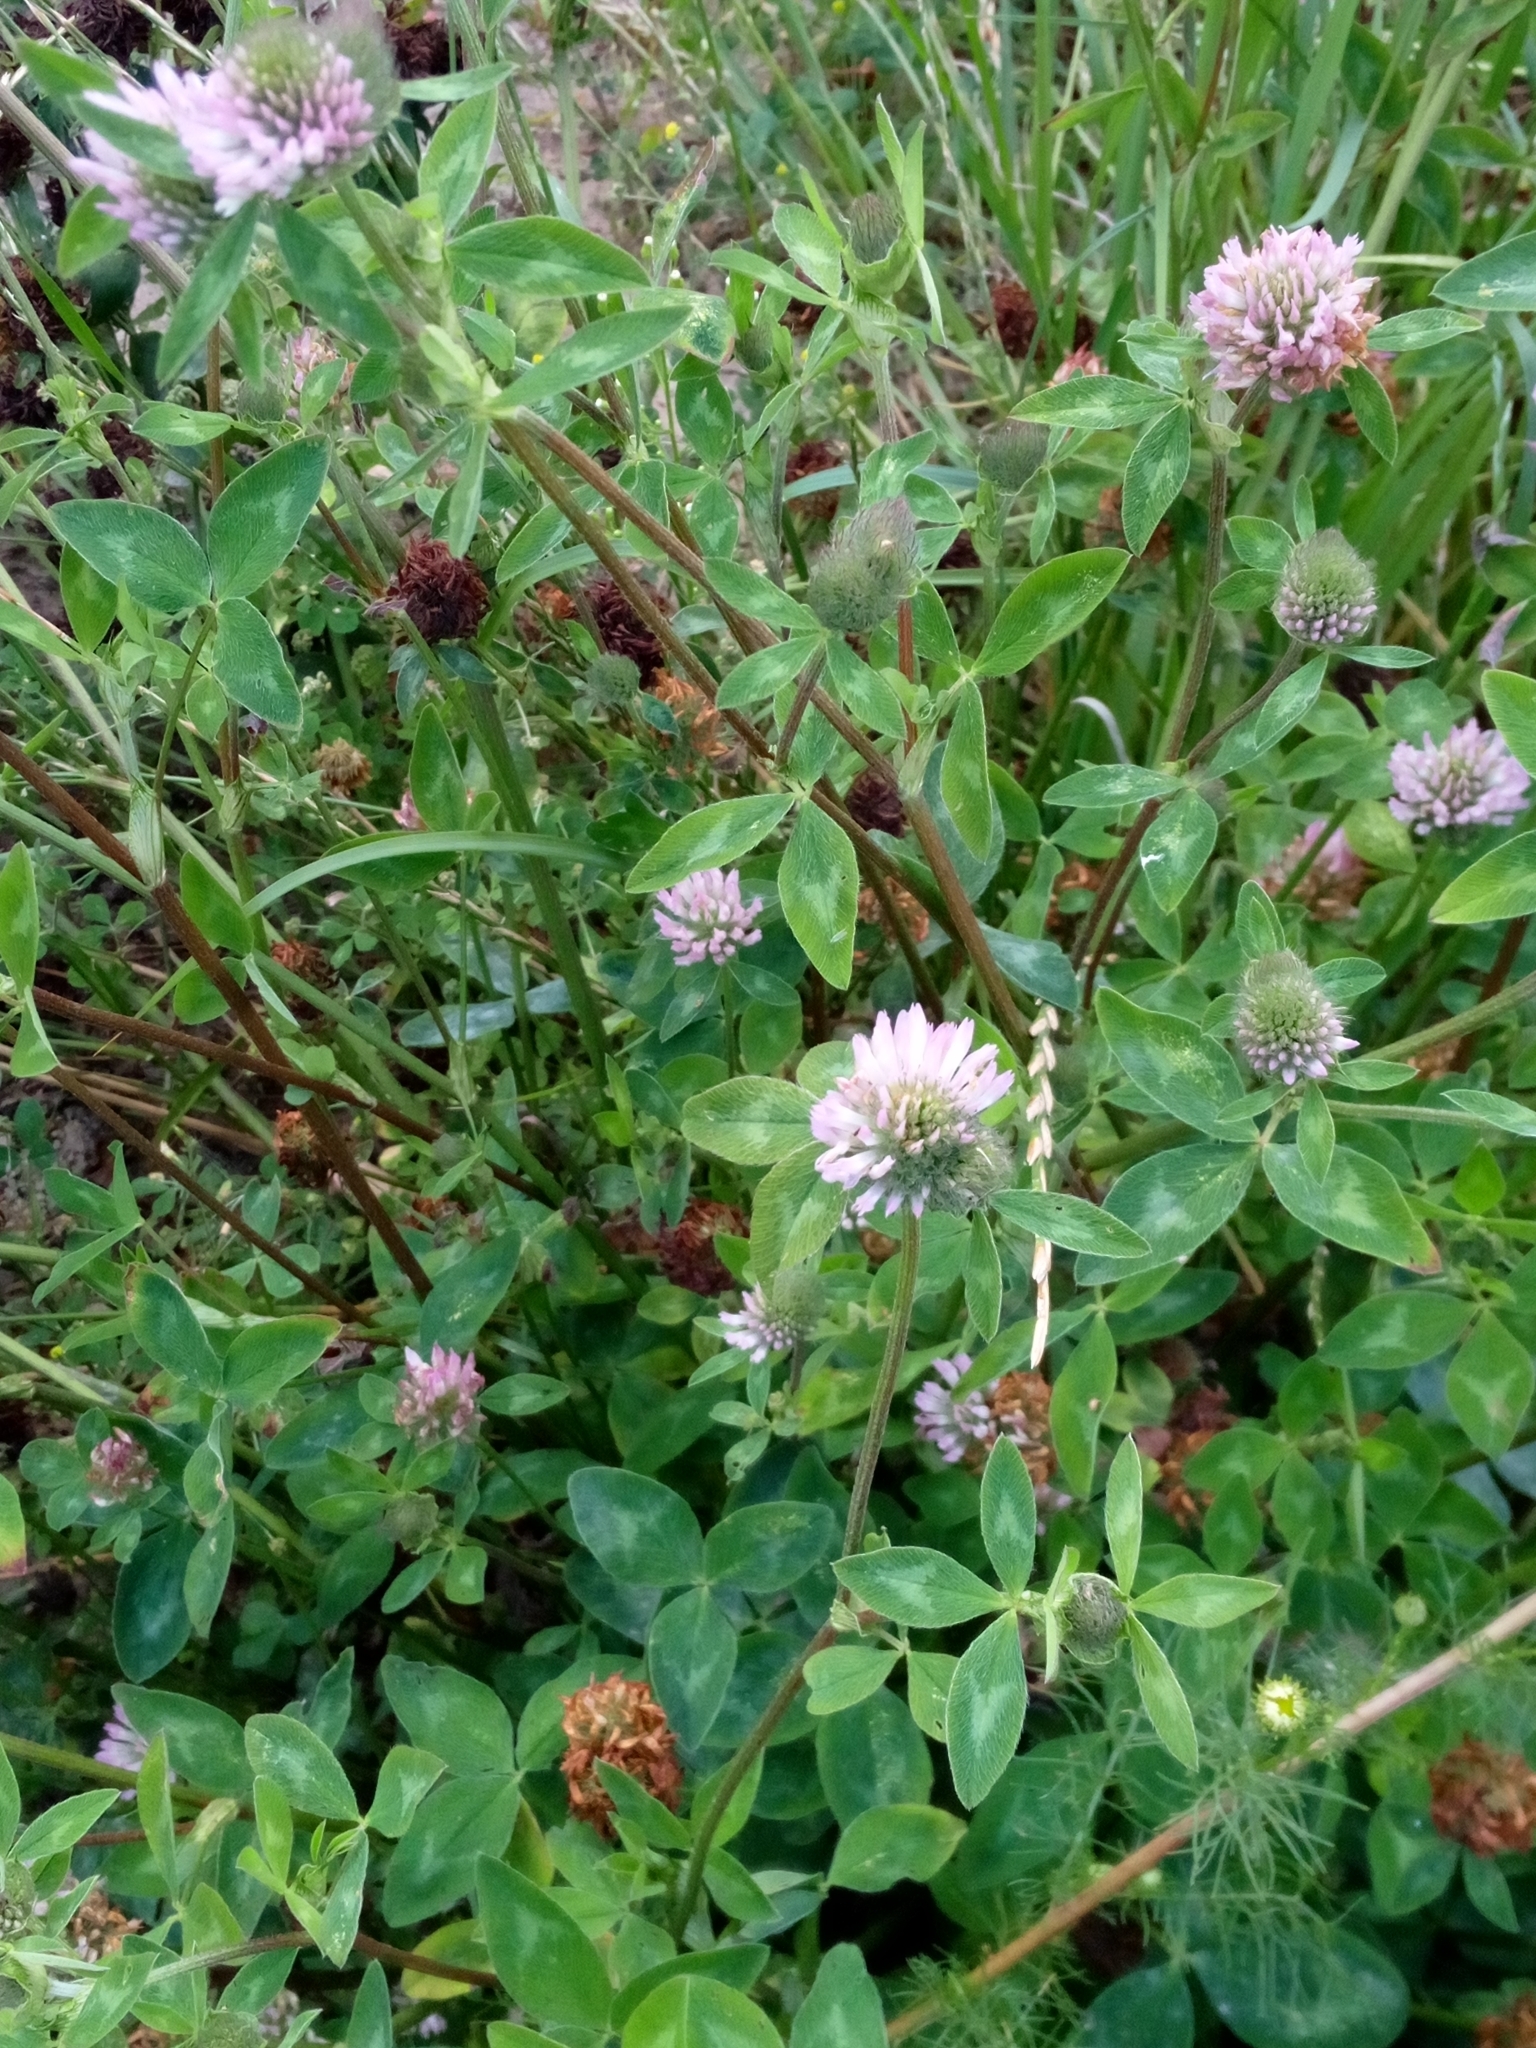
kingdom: Plantae
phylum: Tracheophyta
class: Magnoliopsida
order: Fabales
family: Fabaceae
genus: Trifolium
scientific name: Trifolium pratense
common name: Red clover
